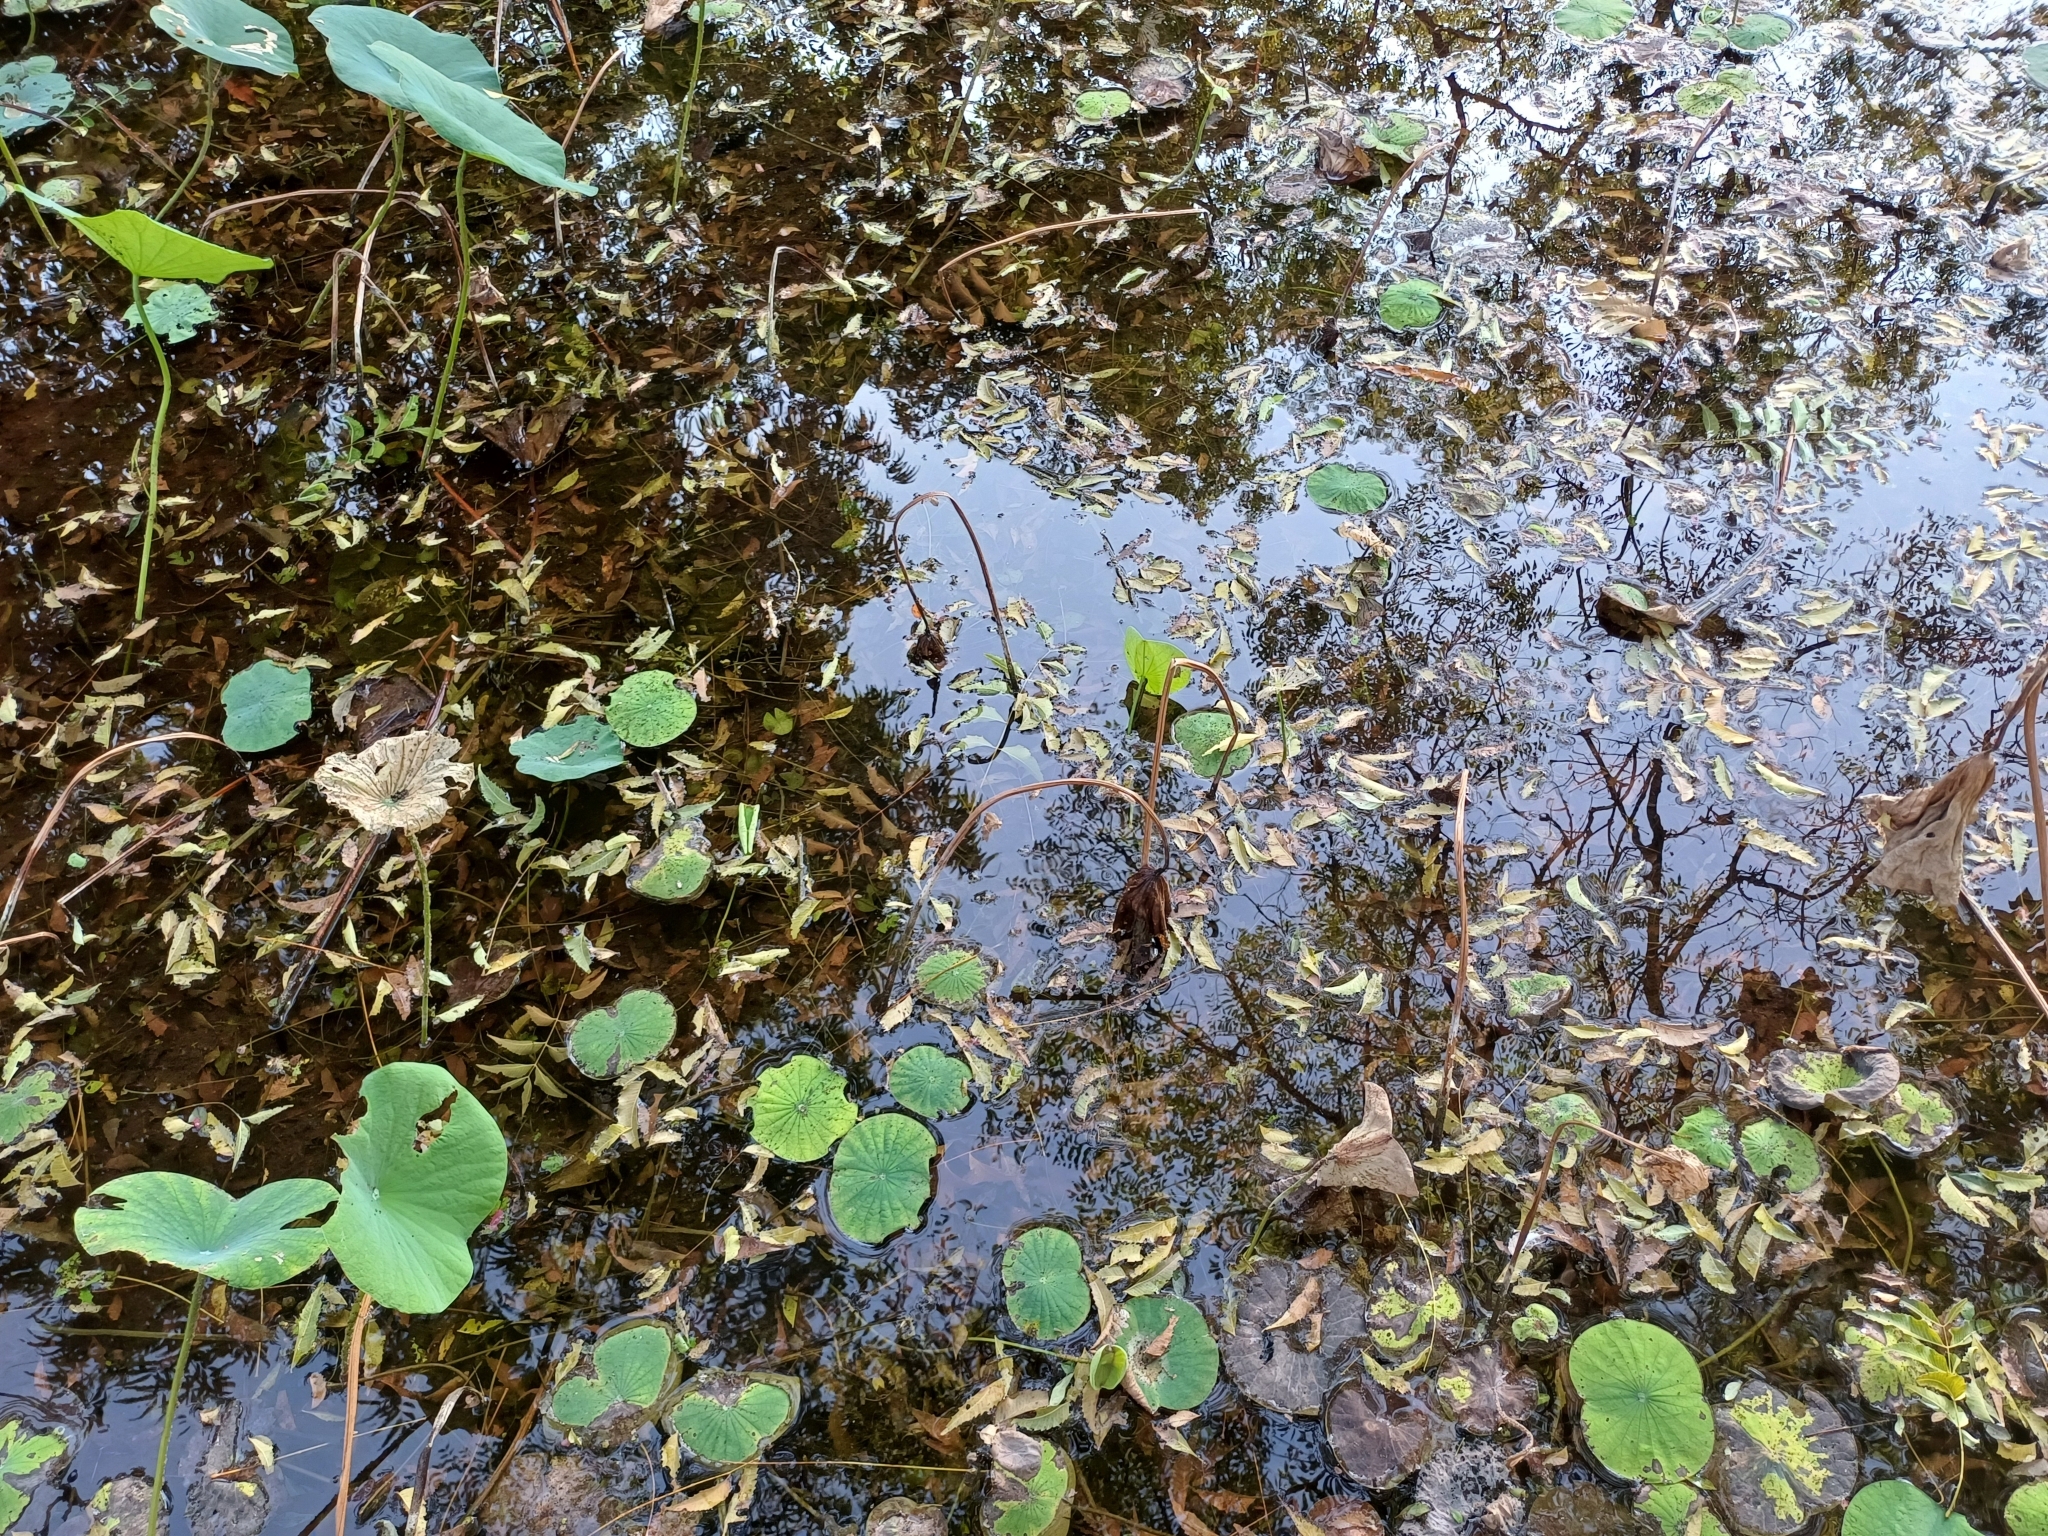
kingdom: Plantae
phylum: Tracheophyta
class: Magnoliopsida
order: Proteales
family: Nelumbonaceae
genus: Nelumbo
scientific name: Nelumbo nucifera
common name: Sacred lotus
